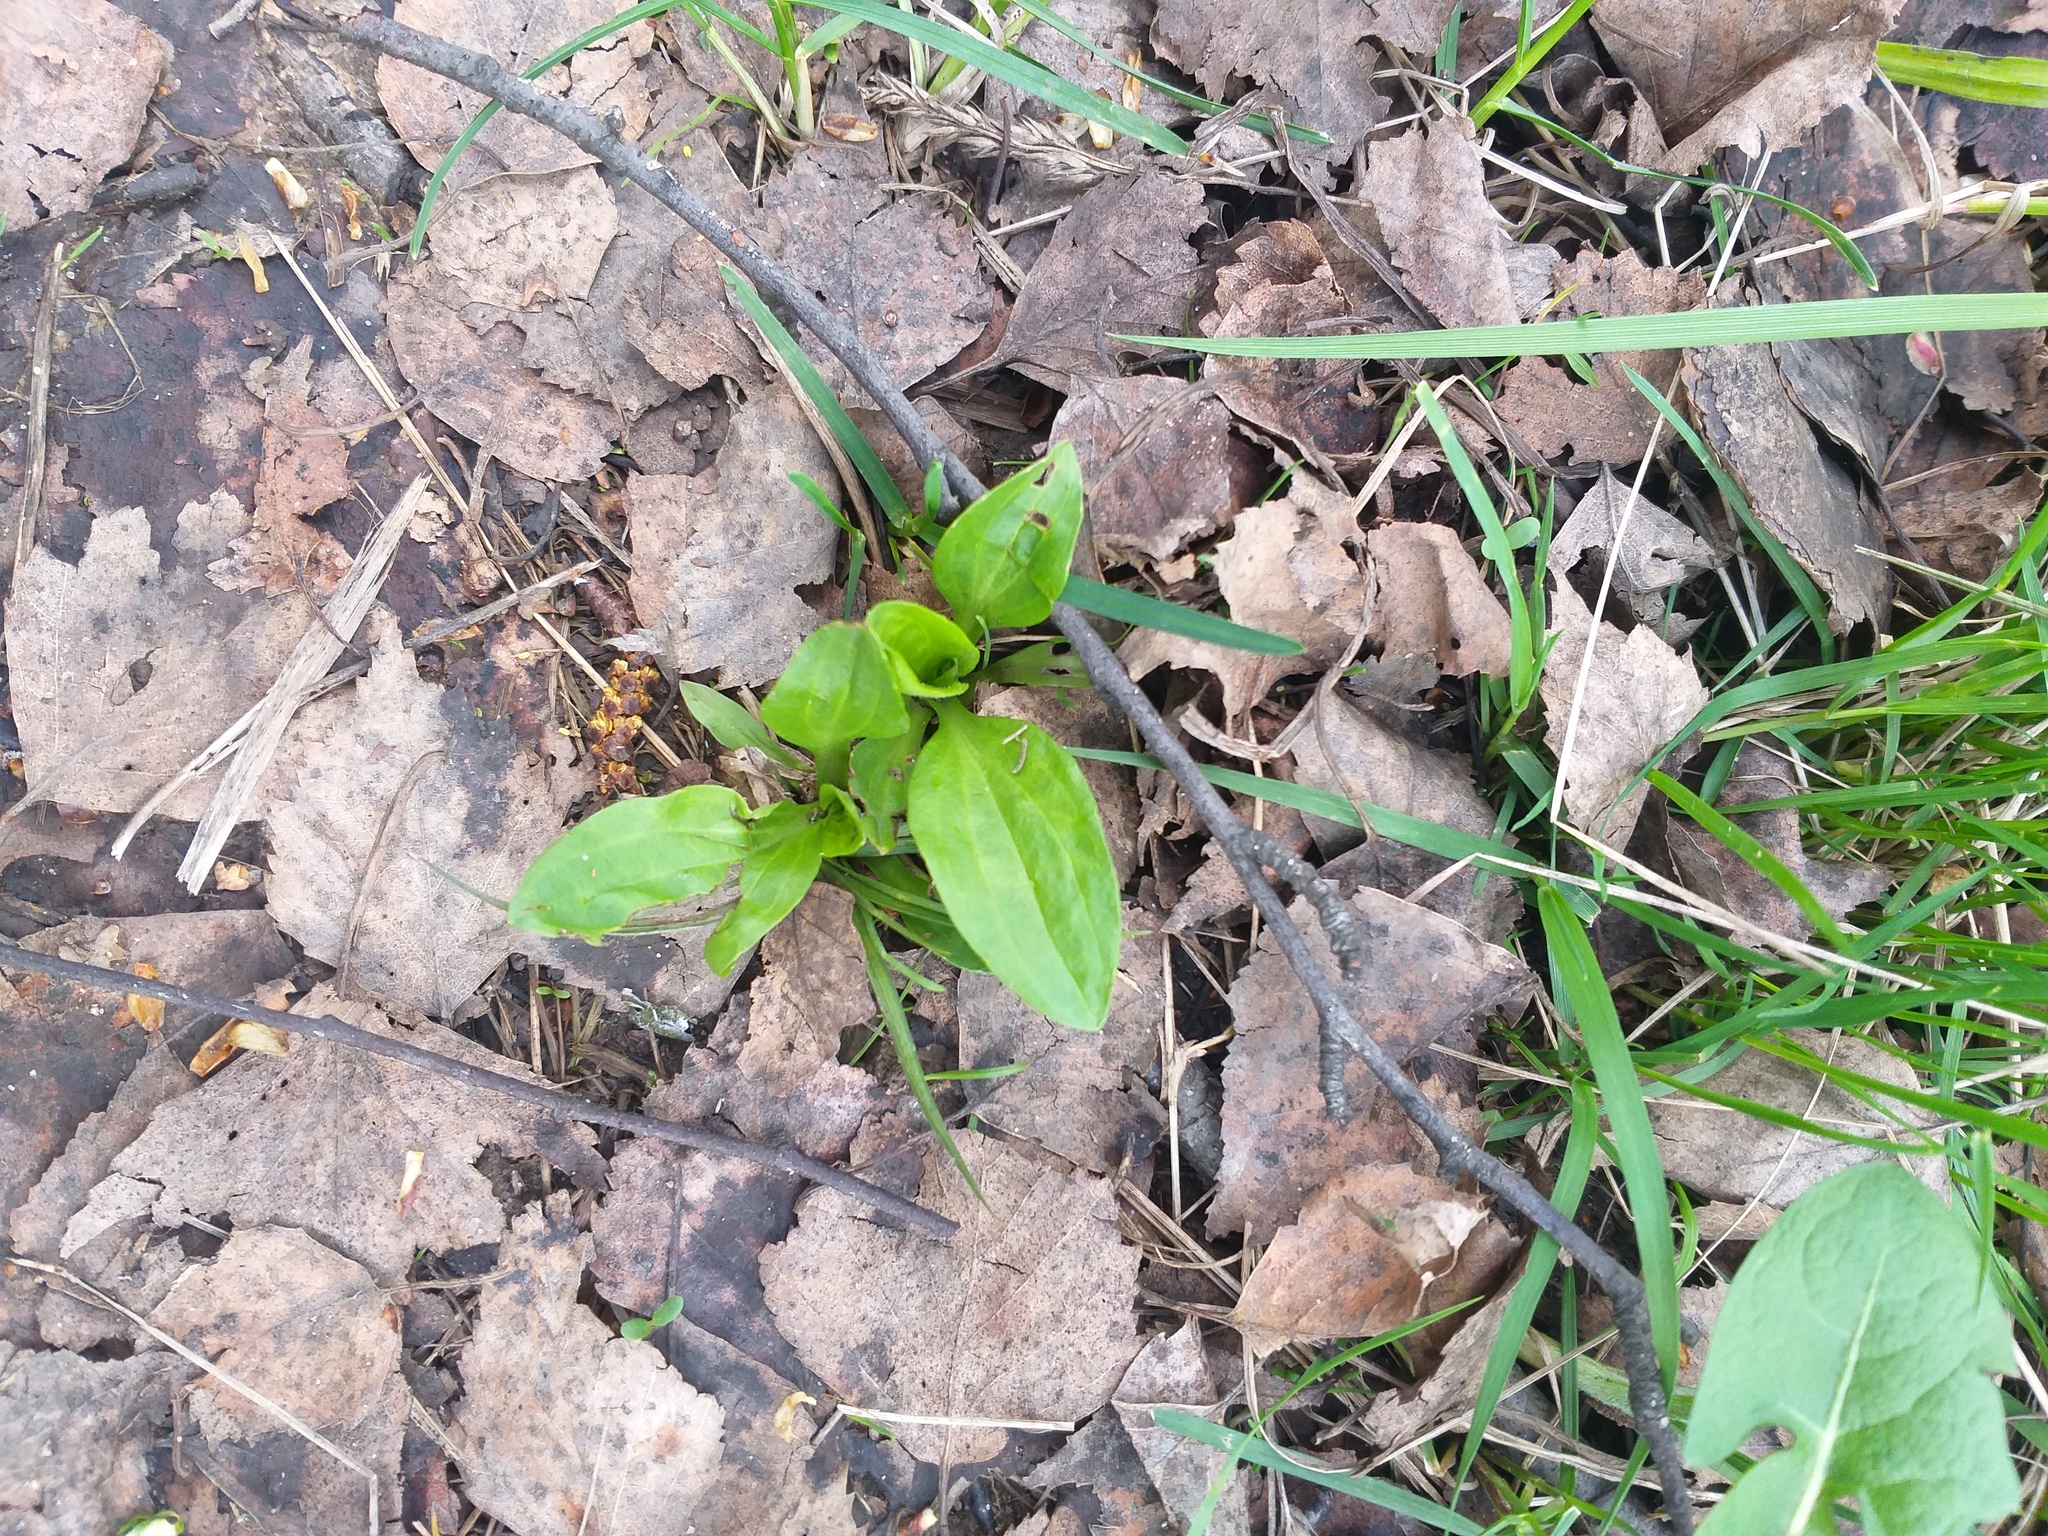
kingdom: Plantae
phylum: Tracheophyta
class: Magnoliopsida
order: Lamiales
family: Plantaginaceae
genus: Plantago
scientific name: Plantago major
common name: Common plantain
